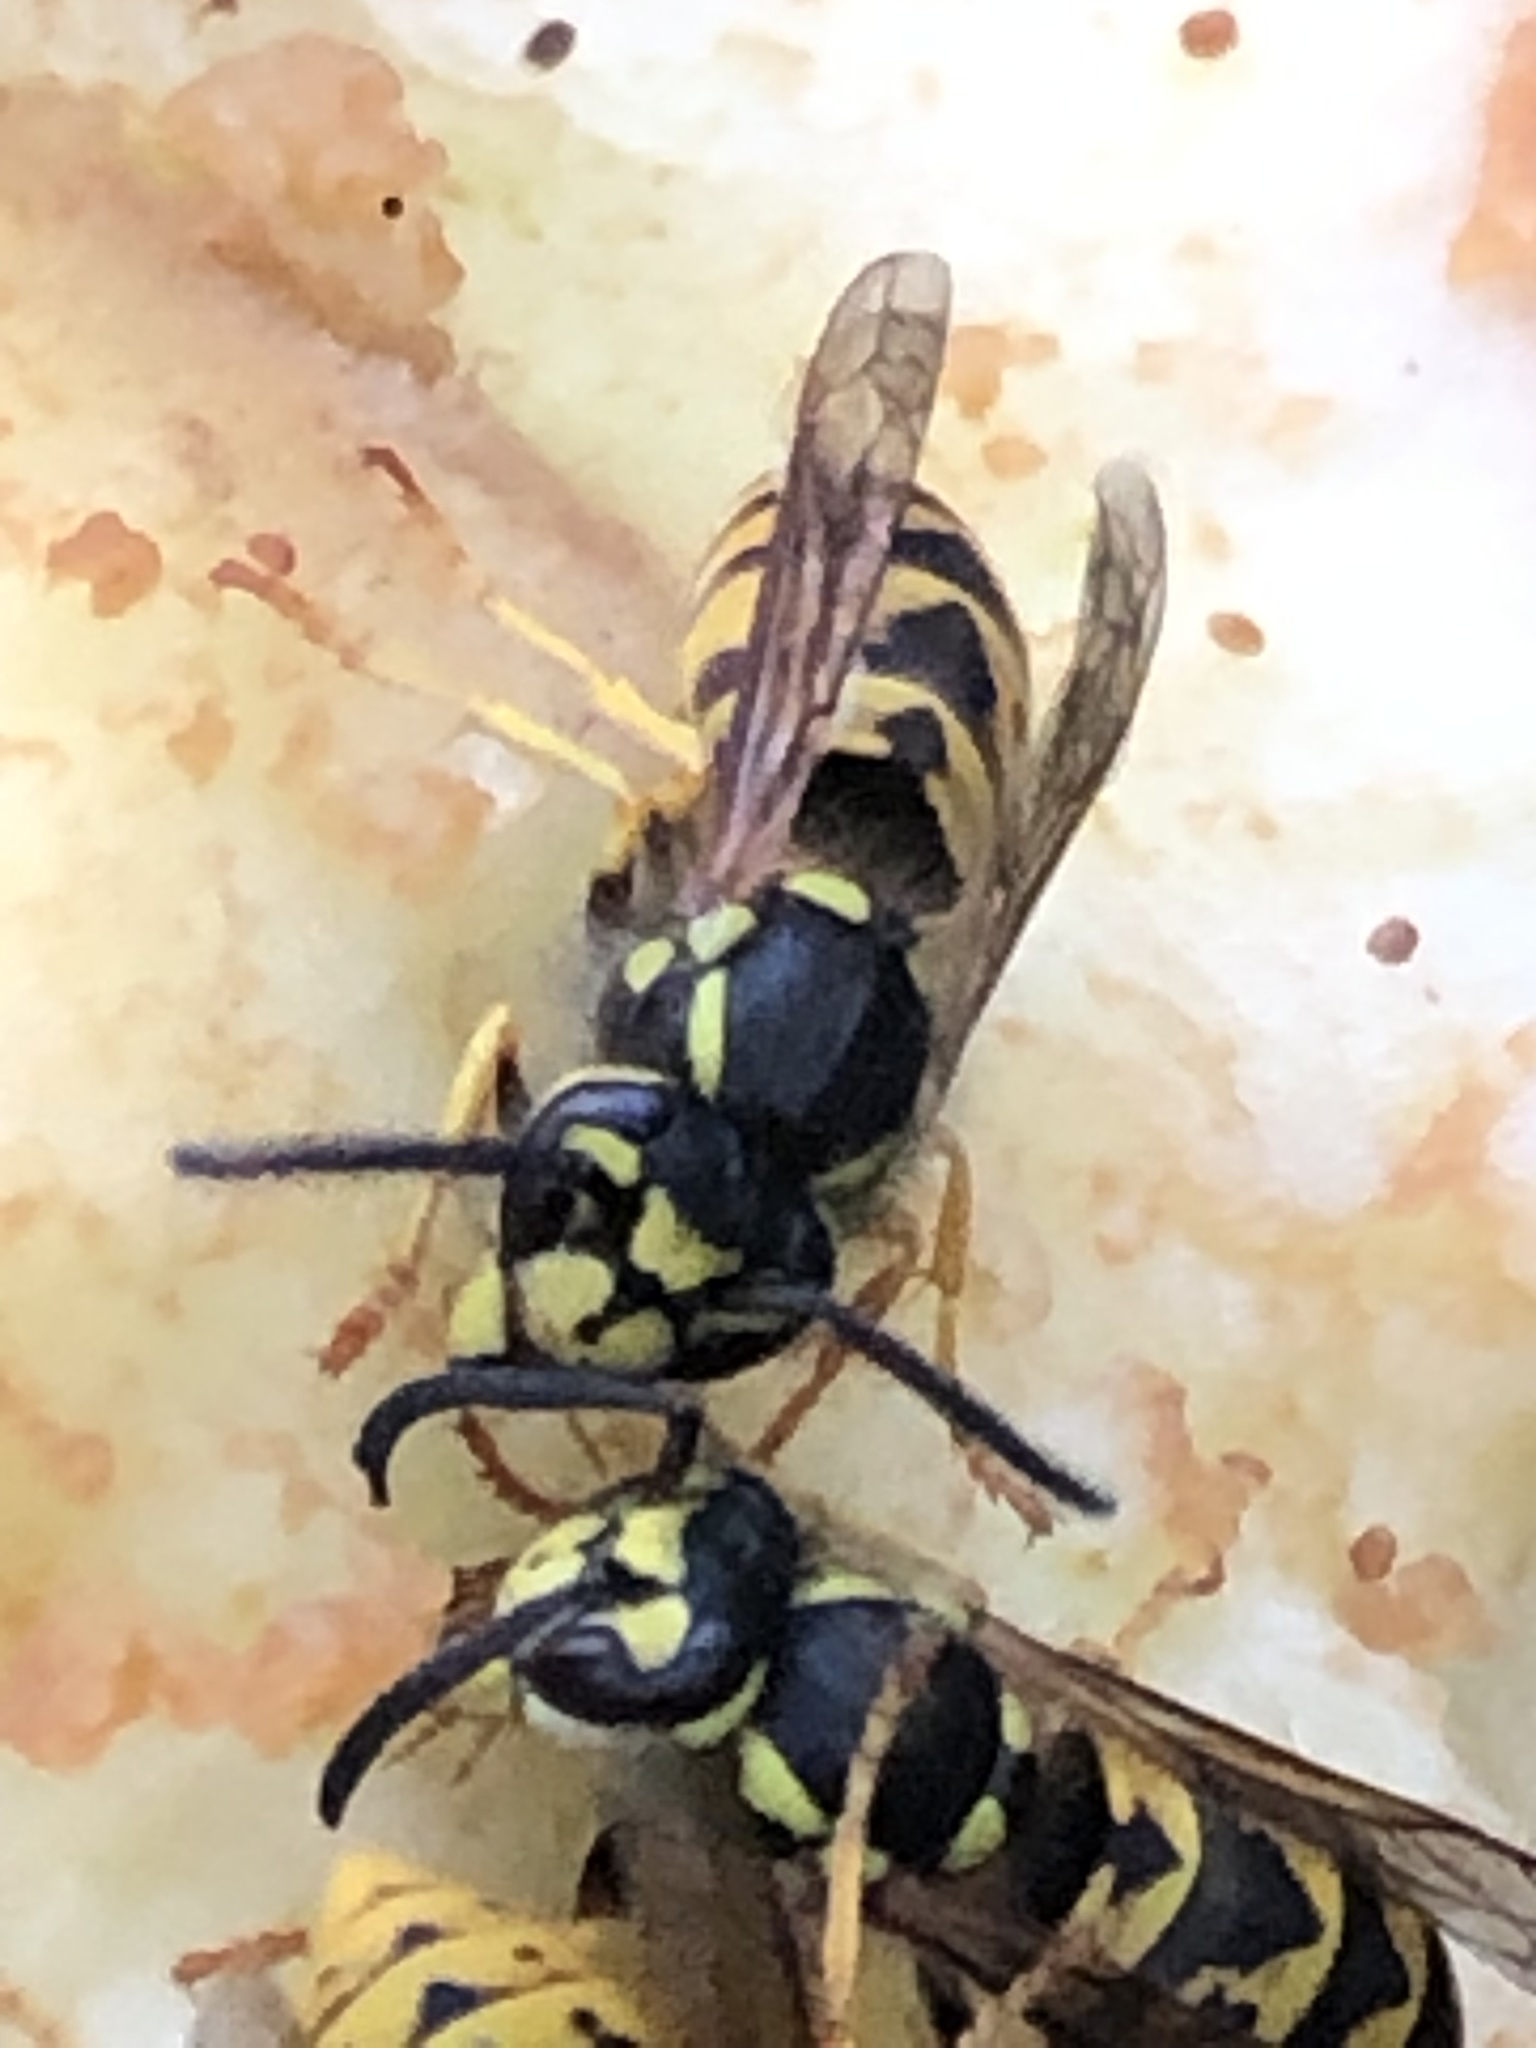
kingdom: Animalia
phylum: Arthropoda
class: Insecta
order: Hymenoptera
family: Vespidae
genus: Vespula
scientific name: Vespula germanica
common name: German wasp
